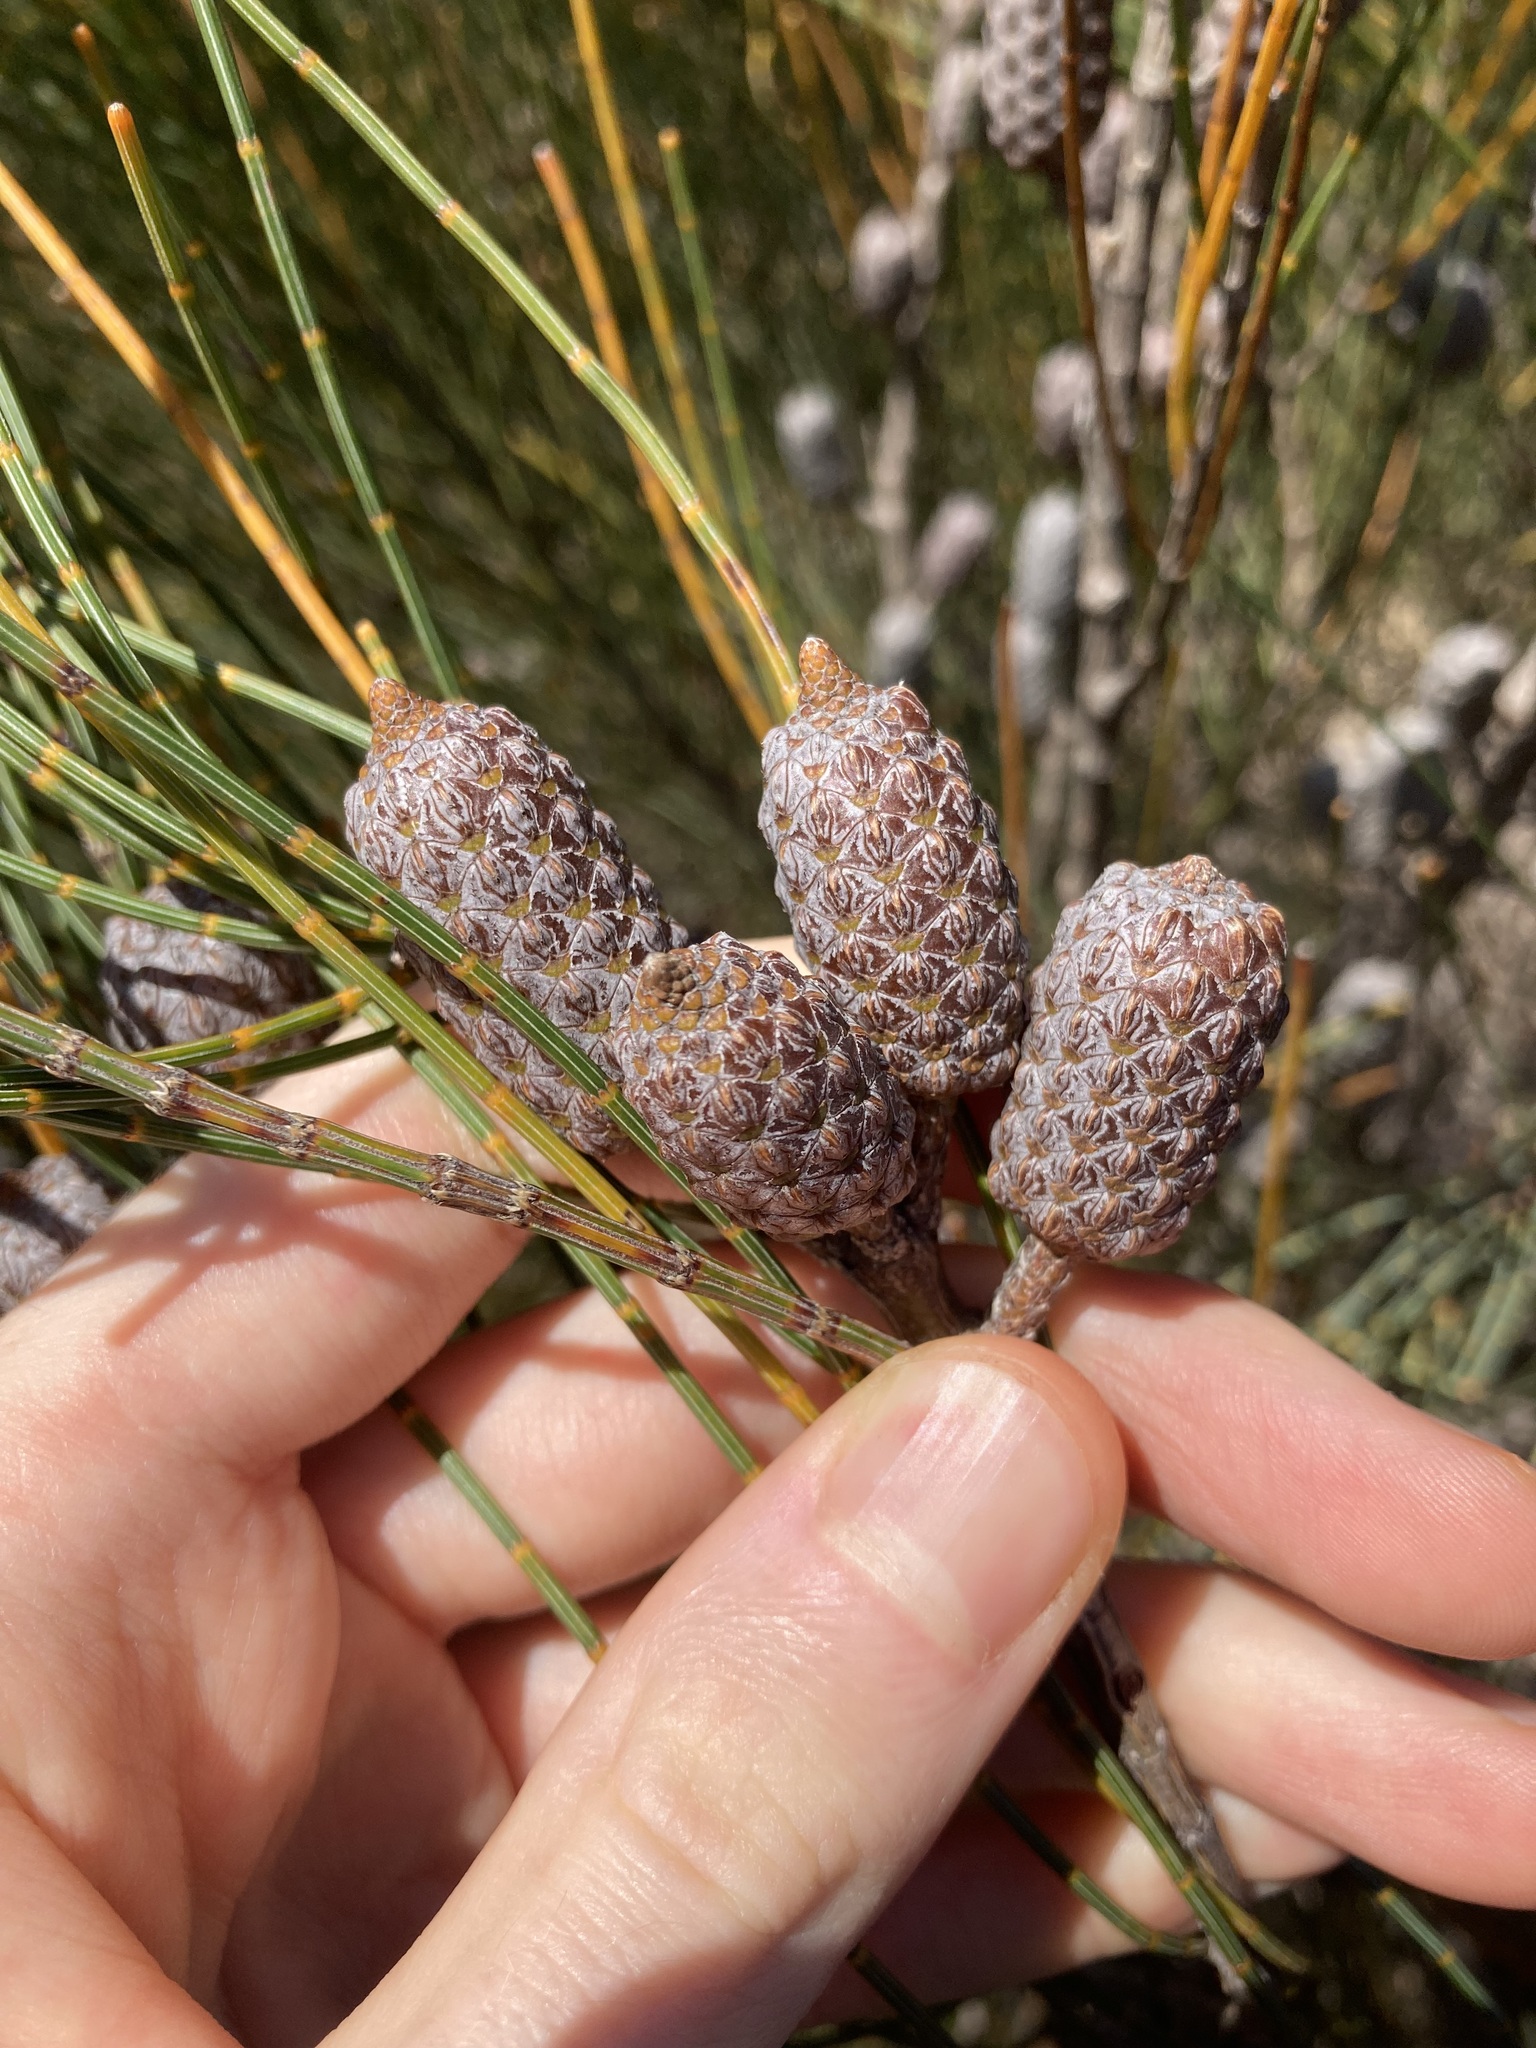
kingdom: Plantae
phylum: Tracheophyta
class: Magnoliopsida
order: Fagales
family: Casuarinaceae
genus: Allocasuarina
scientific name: Allocasuarina distyla
